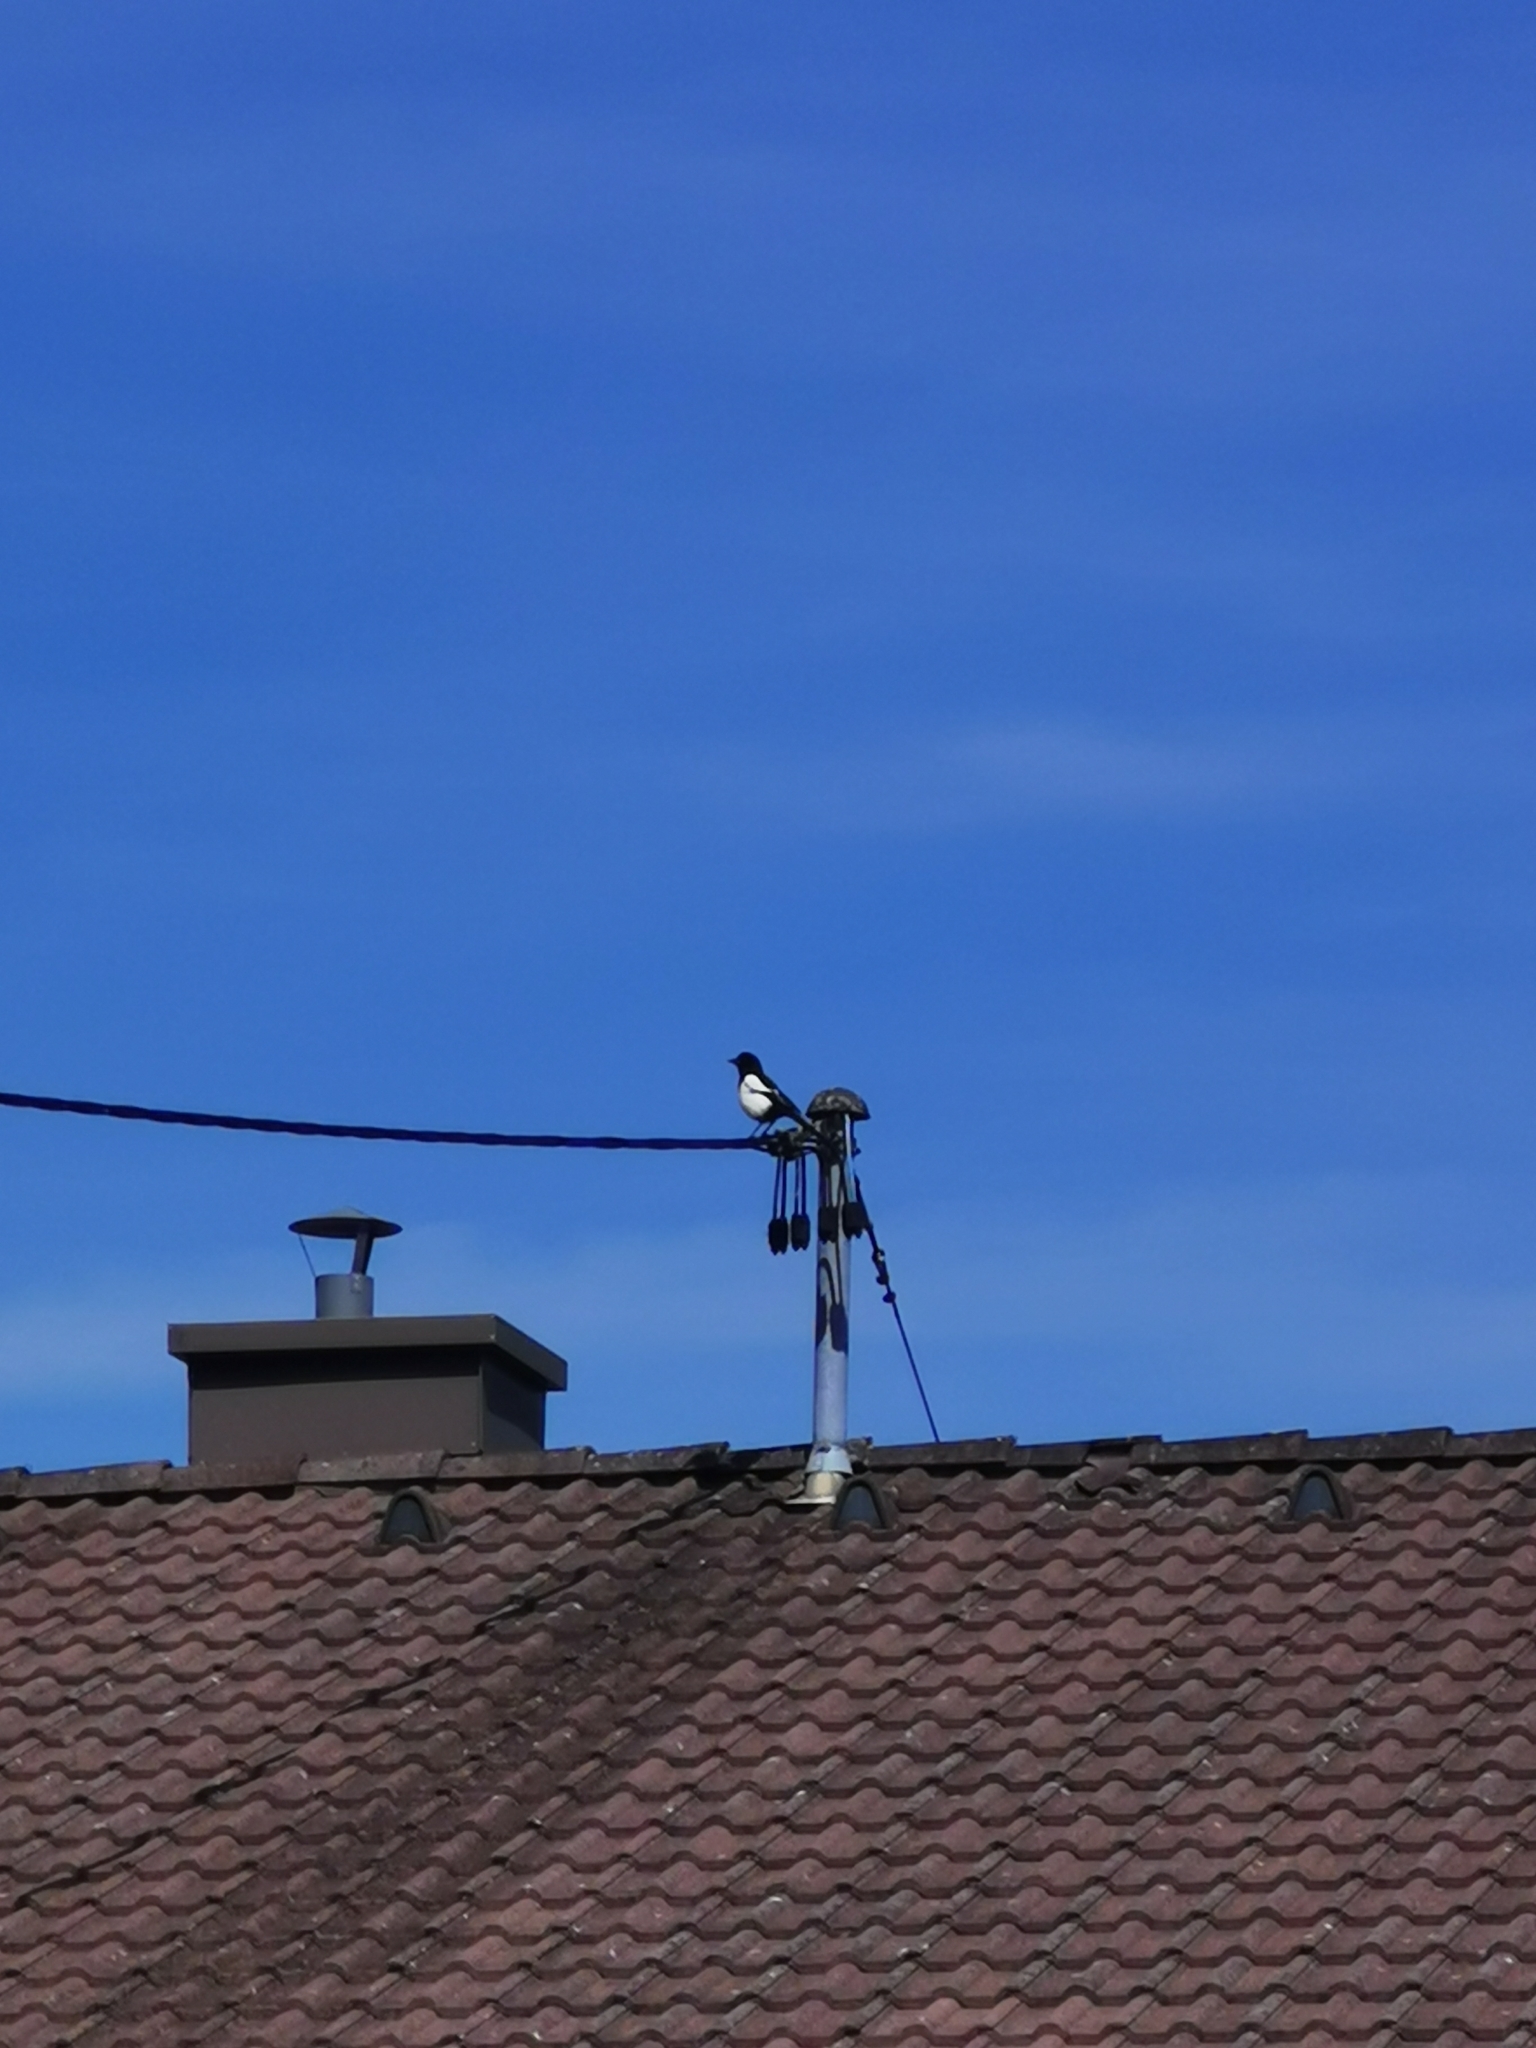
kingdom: Animalia
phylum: Chordata
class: Aves
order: Passeriformes
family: Corvidae
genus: Pica
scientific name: Pica pica
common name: Eurasian magpie
